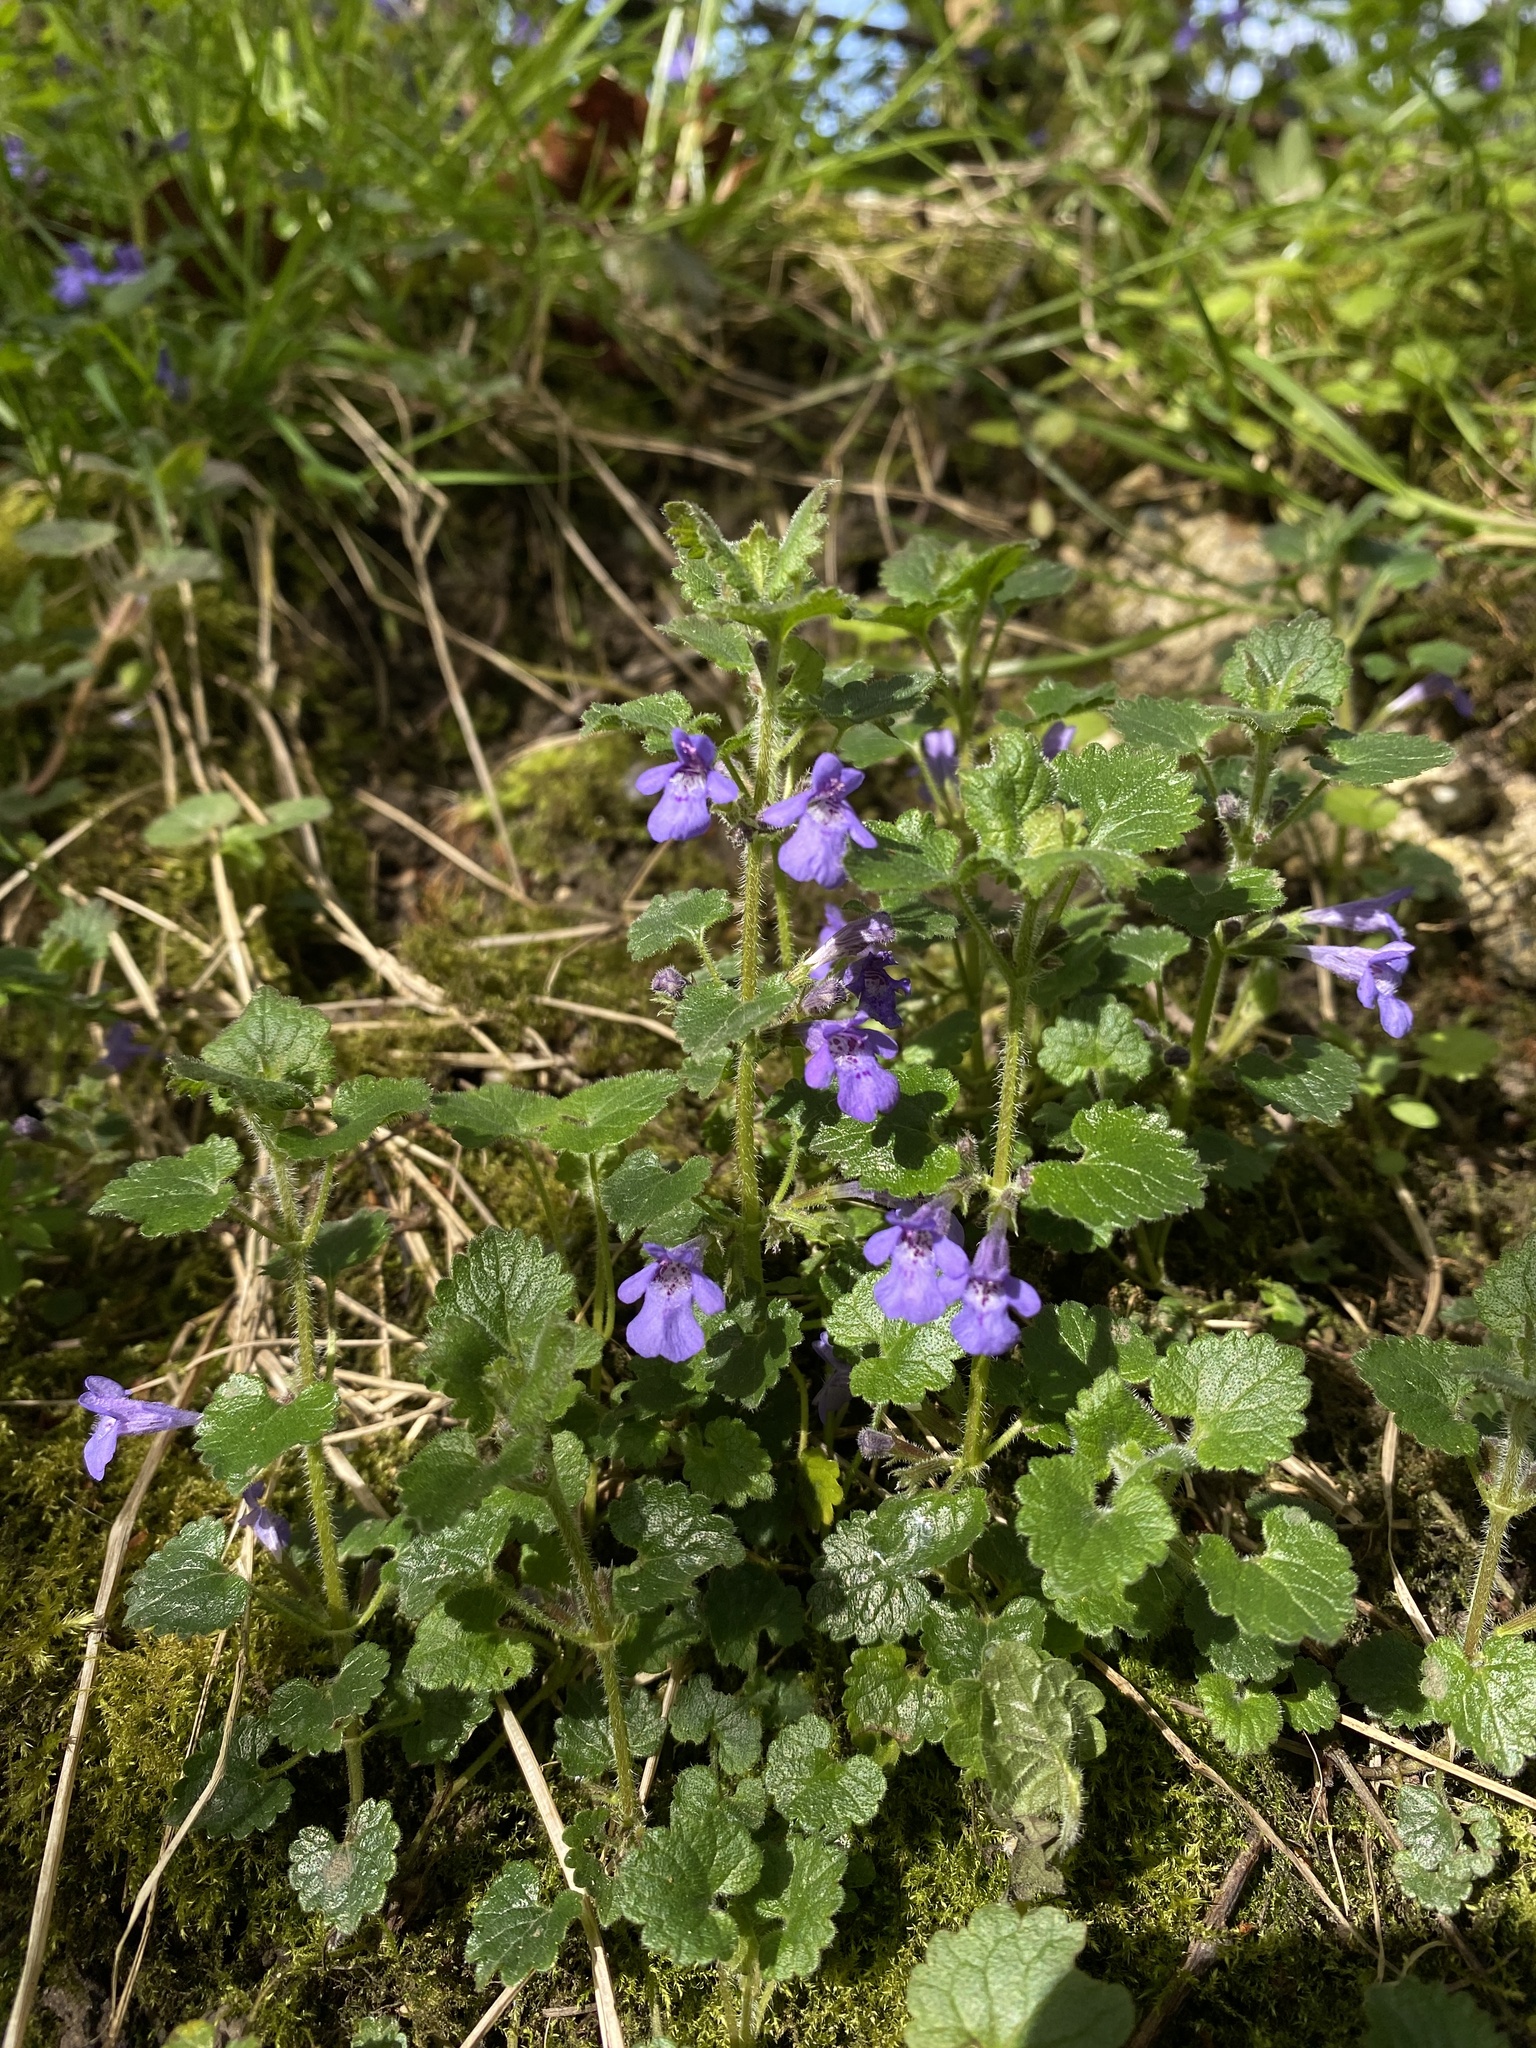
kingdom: Plantae
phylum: Tracheophyta
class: Magnoliopsida
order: Lamiales
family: Lamiaceae
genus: Glechoma
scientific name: Glechoma hederacea
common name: Ground ivy
